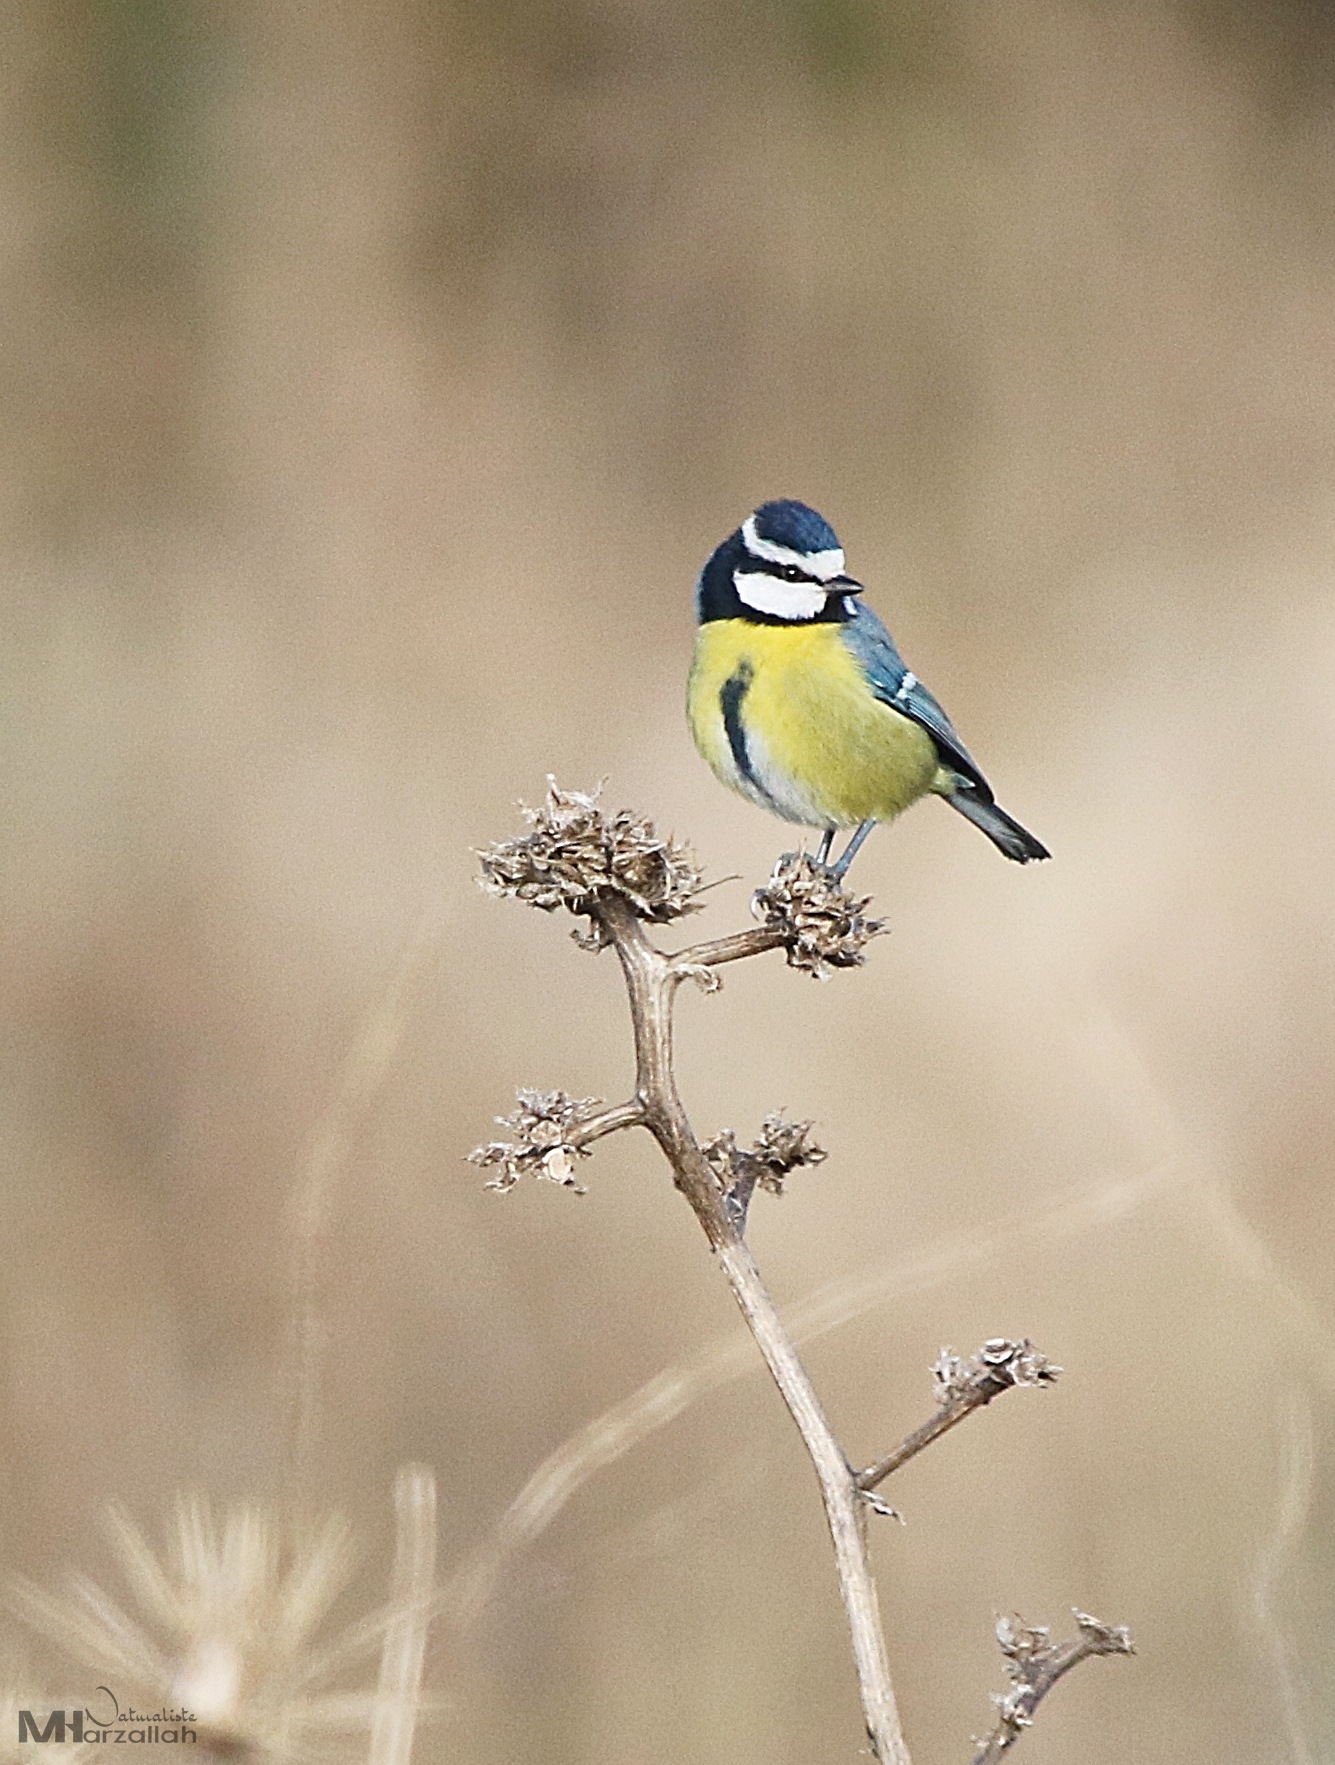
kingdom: Animalia
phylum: Chordata
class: Aves
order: Passeriformes
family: Paridae
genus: Cyanistes
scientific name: Cyanistes teneriffae
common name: African blue tit
